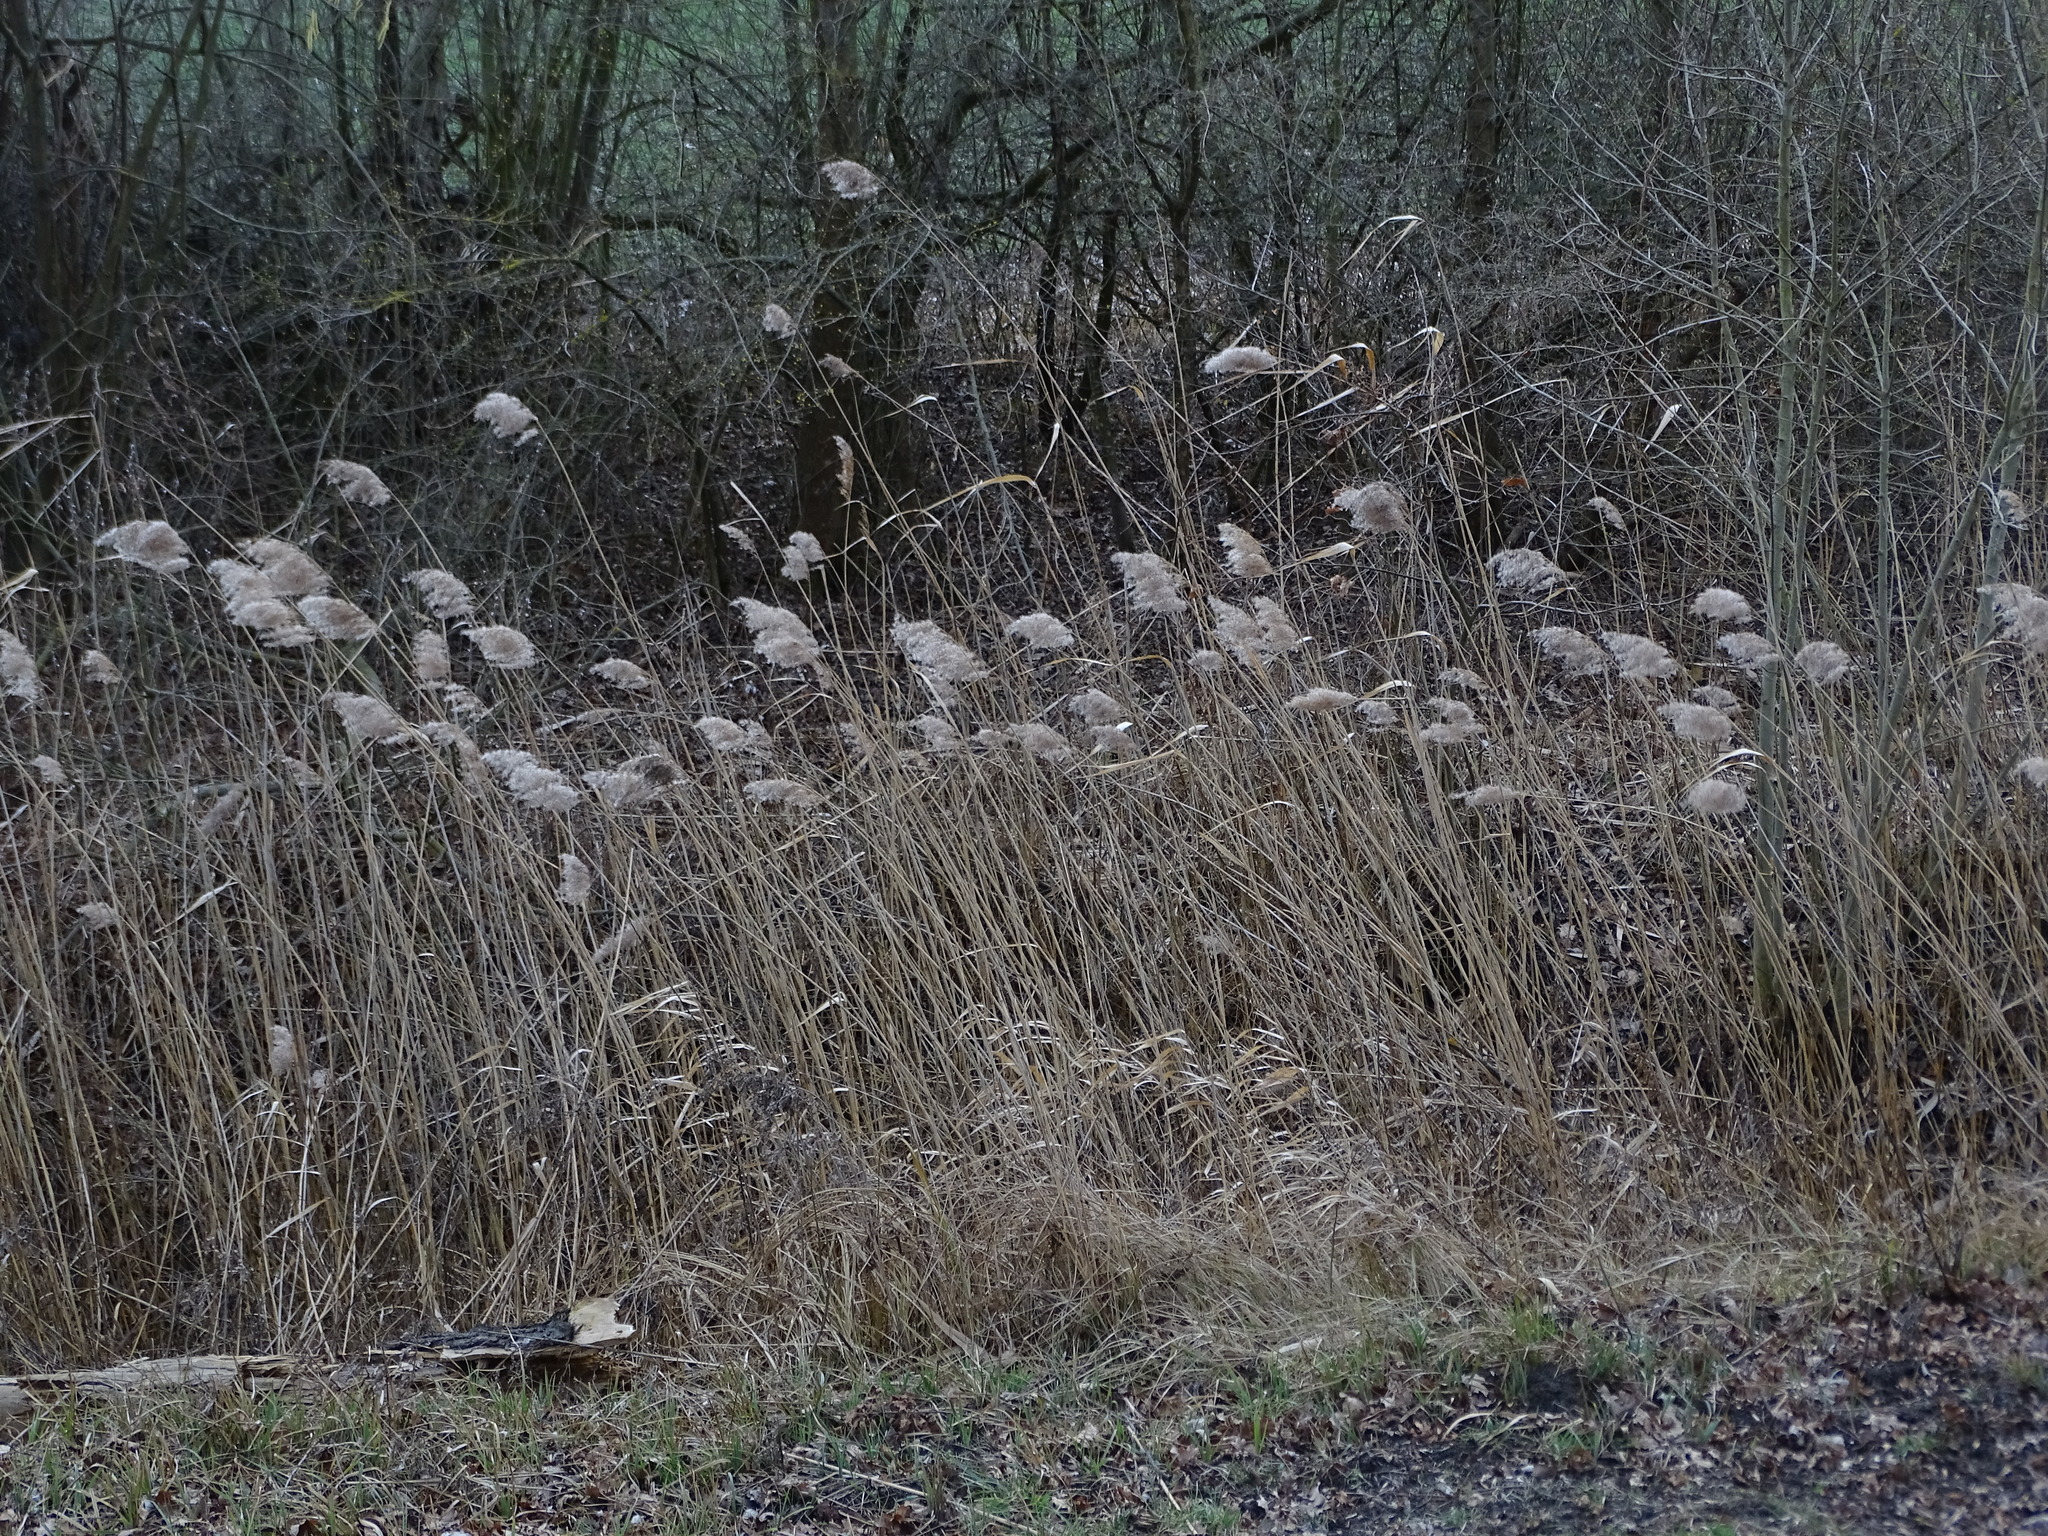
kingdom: Plantae
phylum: Tracheophyta
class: Liliopsida
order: Poales
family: Poaceae
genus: Phragmites
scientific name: Phragmites australis
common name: Common reed
